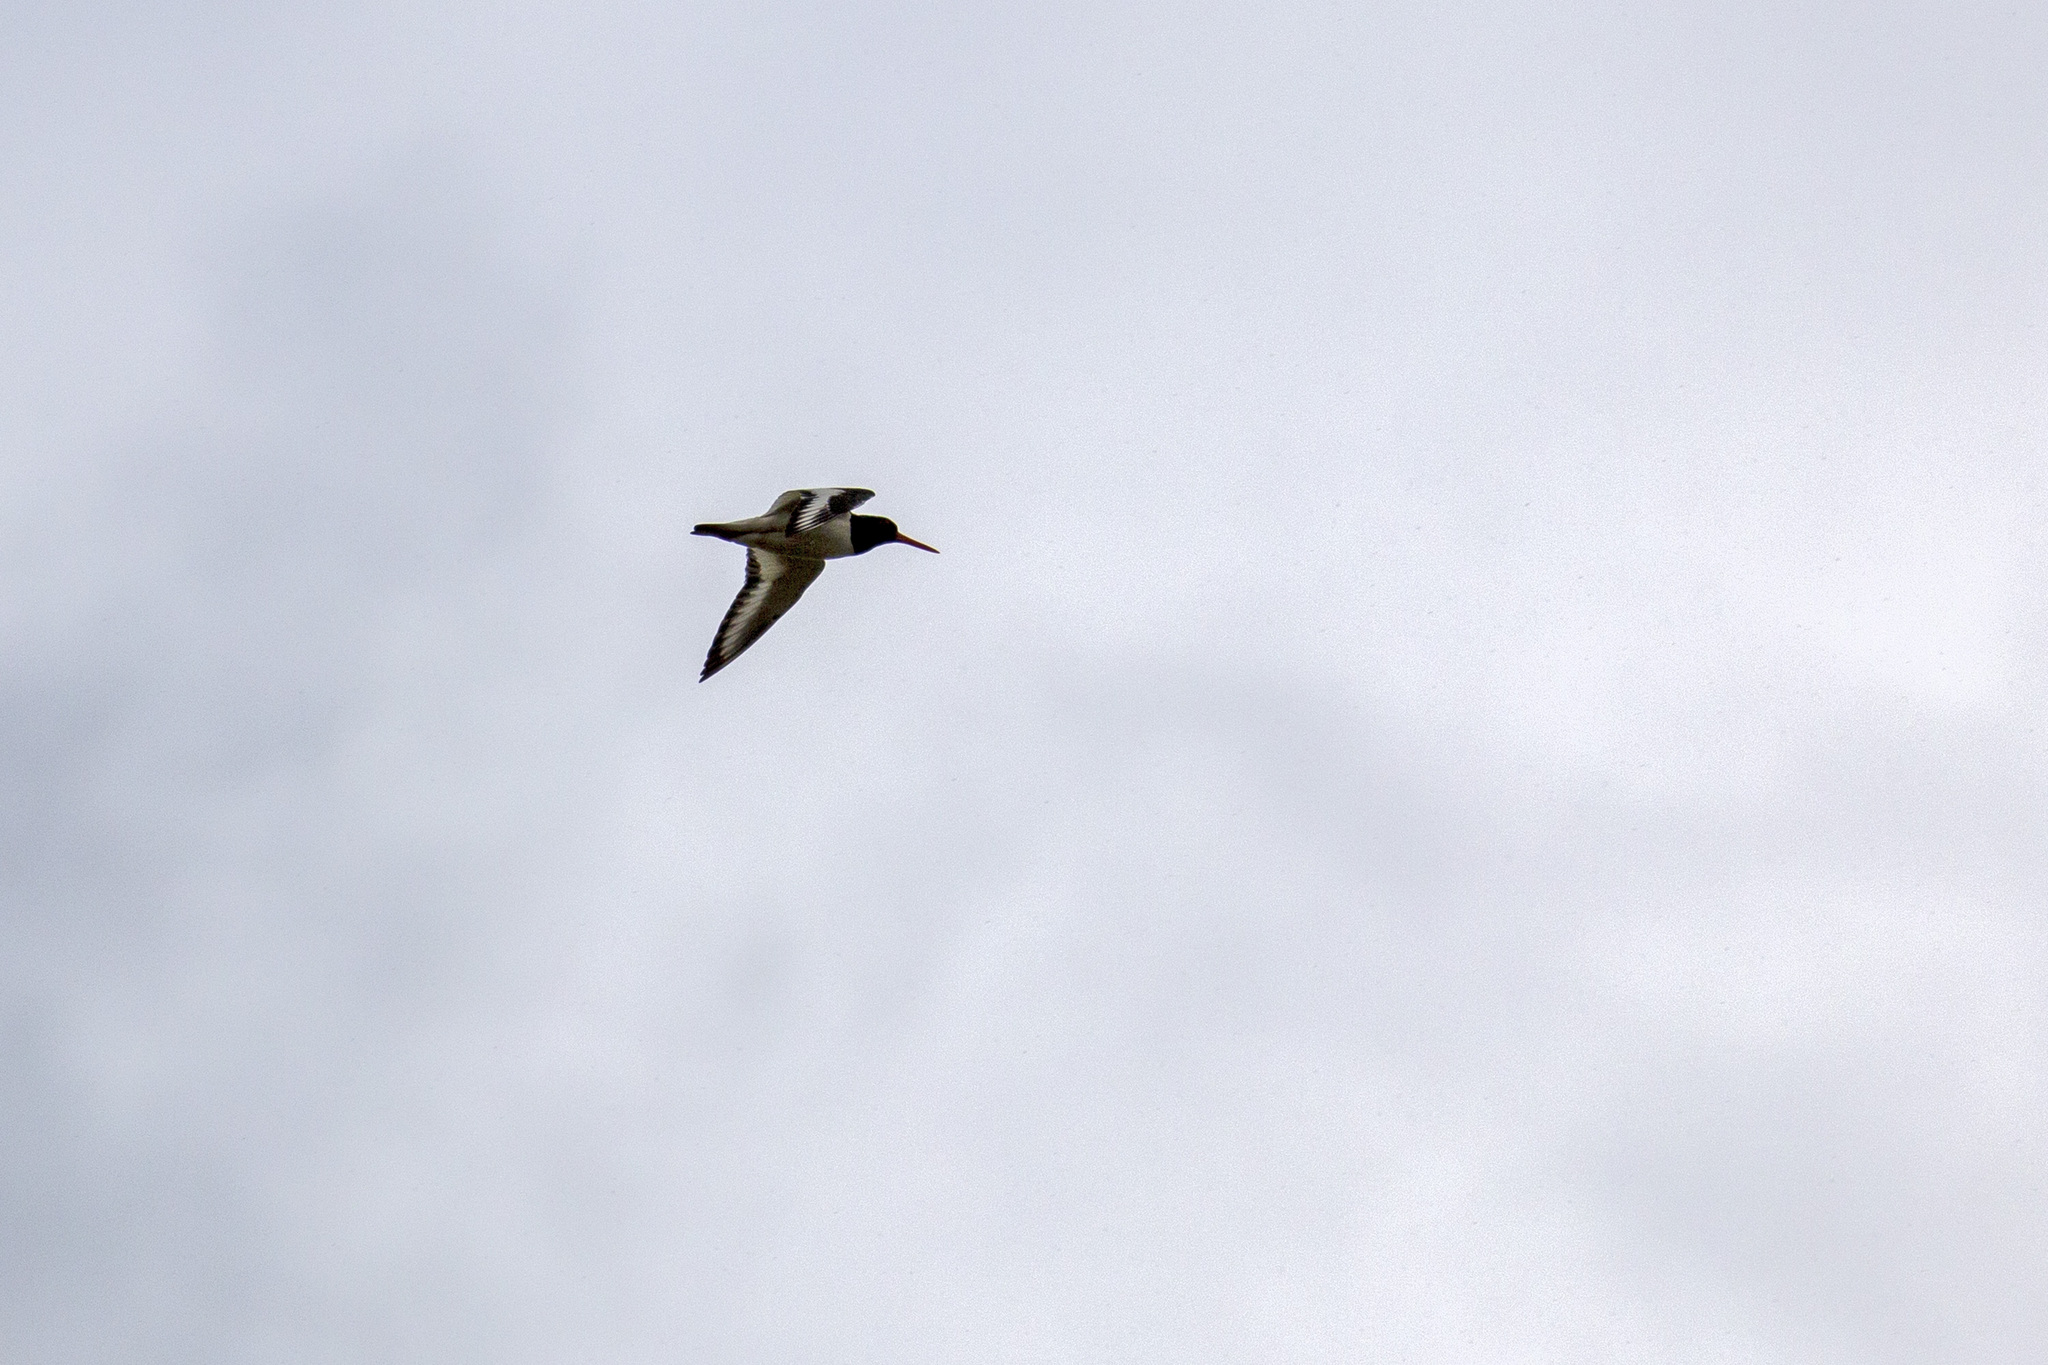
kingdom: Animalia
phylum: Chordata
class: Aves
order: Charadriiformes
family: Haematopodidae
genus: Haematopus
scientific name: Haematopus ostralegus
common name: Eurasian oystercatcher
